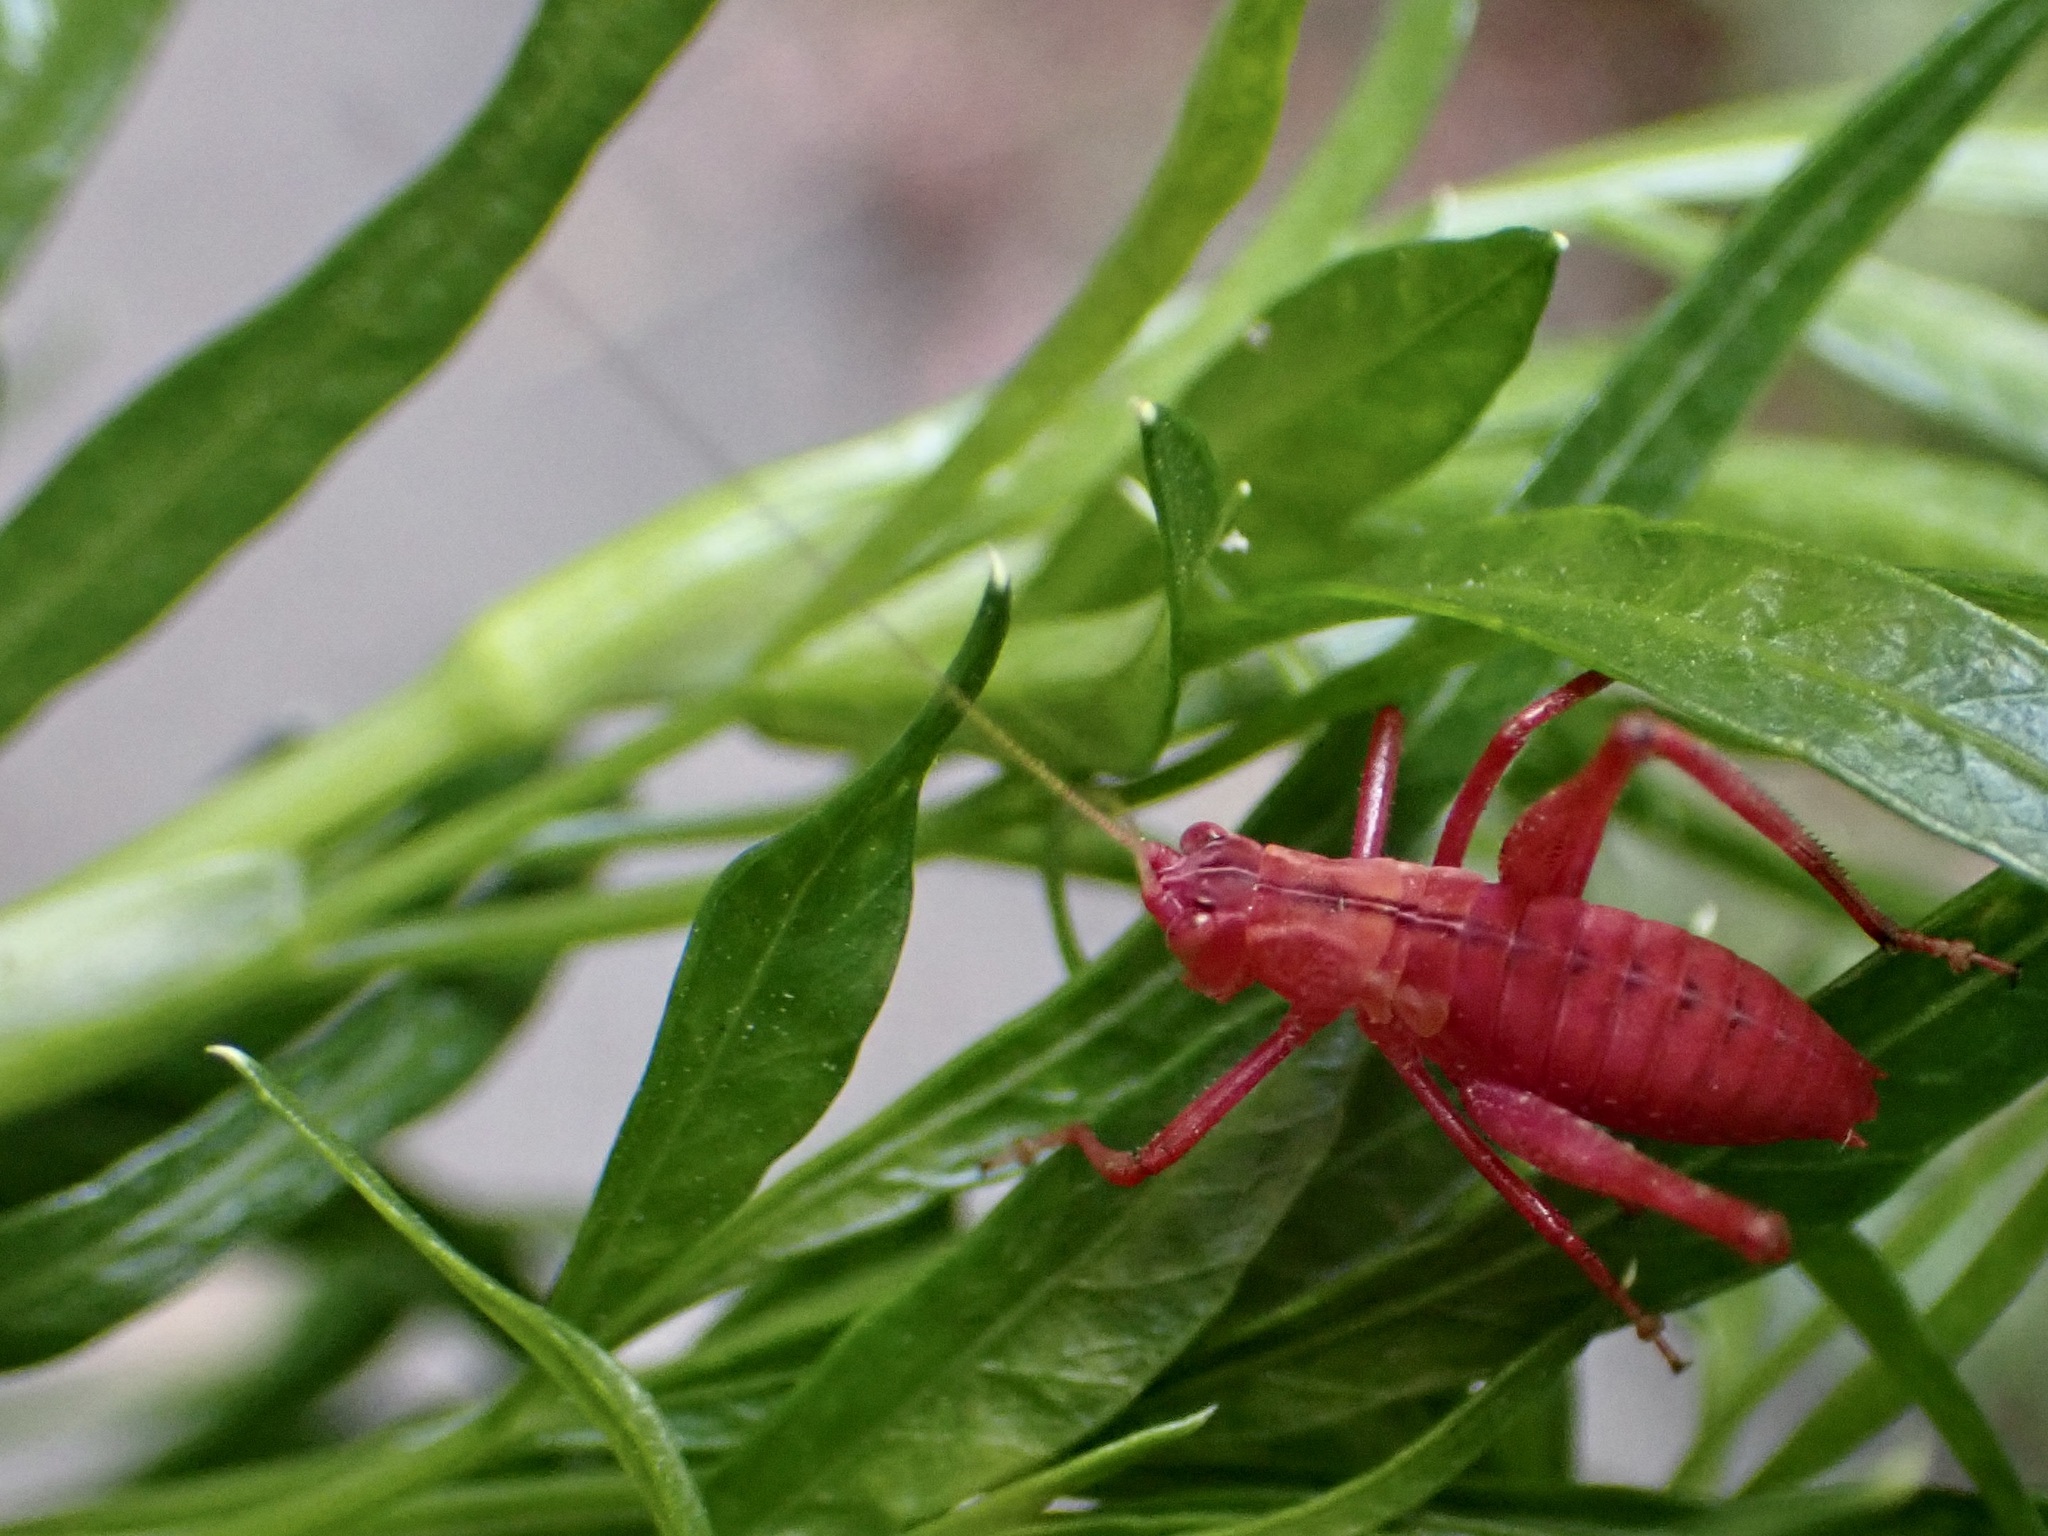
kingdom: Animalia
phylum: Arthropoda
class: Insecta
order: Orthoptera
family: Tettigoniidae
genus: Caedicia
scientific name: Caedicia simplex
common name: Common garden katydid
